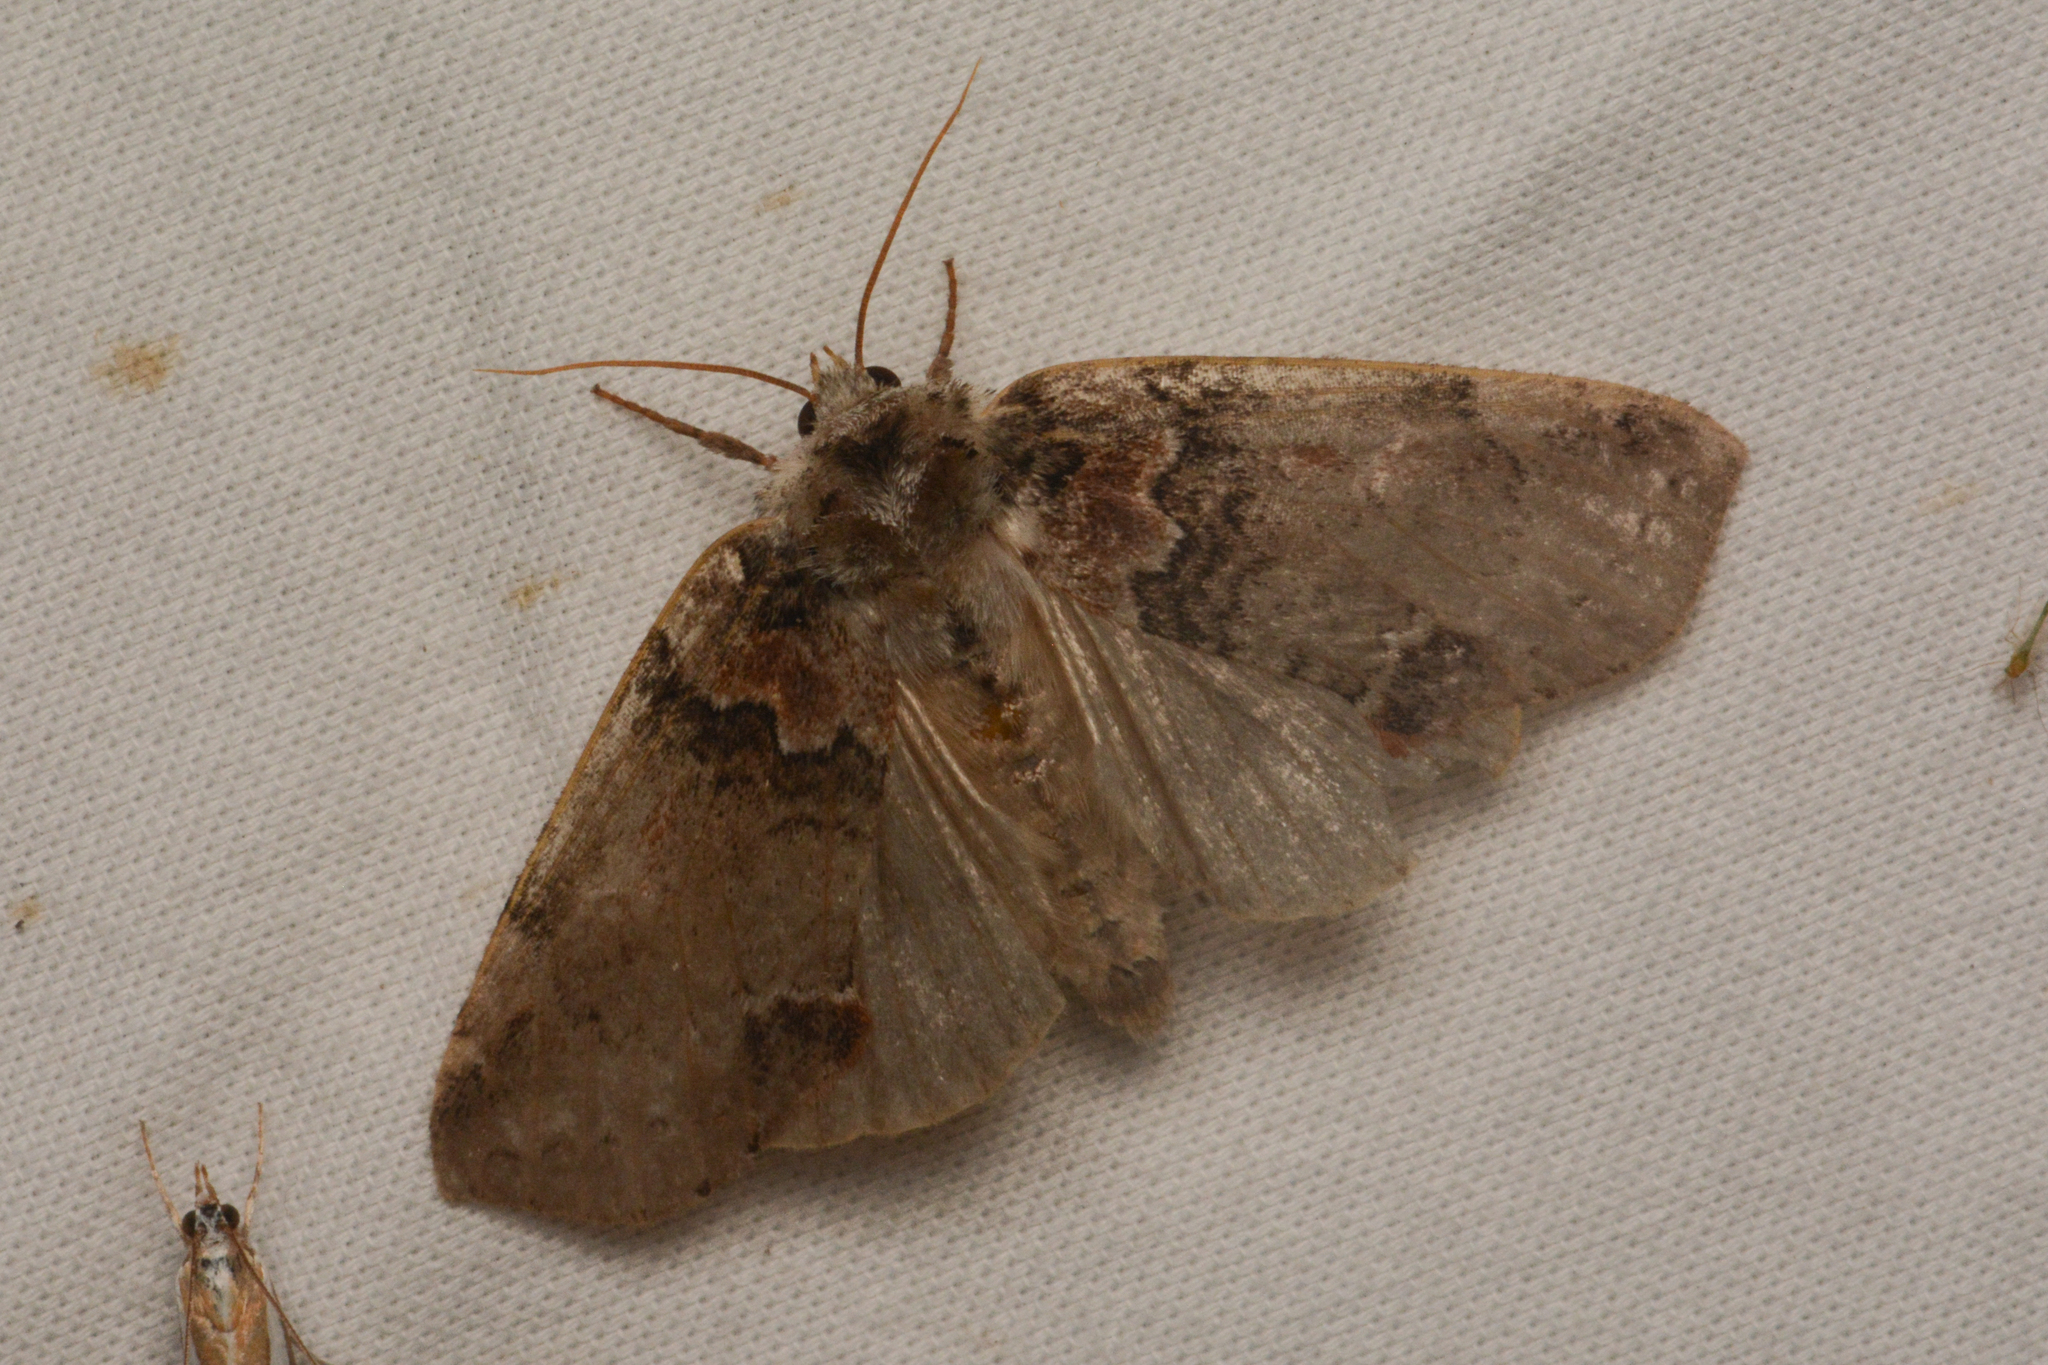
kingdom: Animalia
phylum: Arthropoda
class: Insecta
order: Lepidoptera
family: Drepanidae
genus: Pseudothyatira
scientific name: Pseudothyatira cymatophoroides
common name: Tufted thyatirid moth
